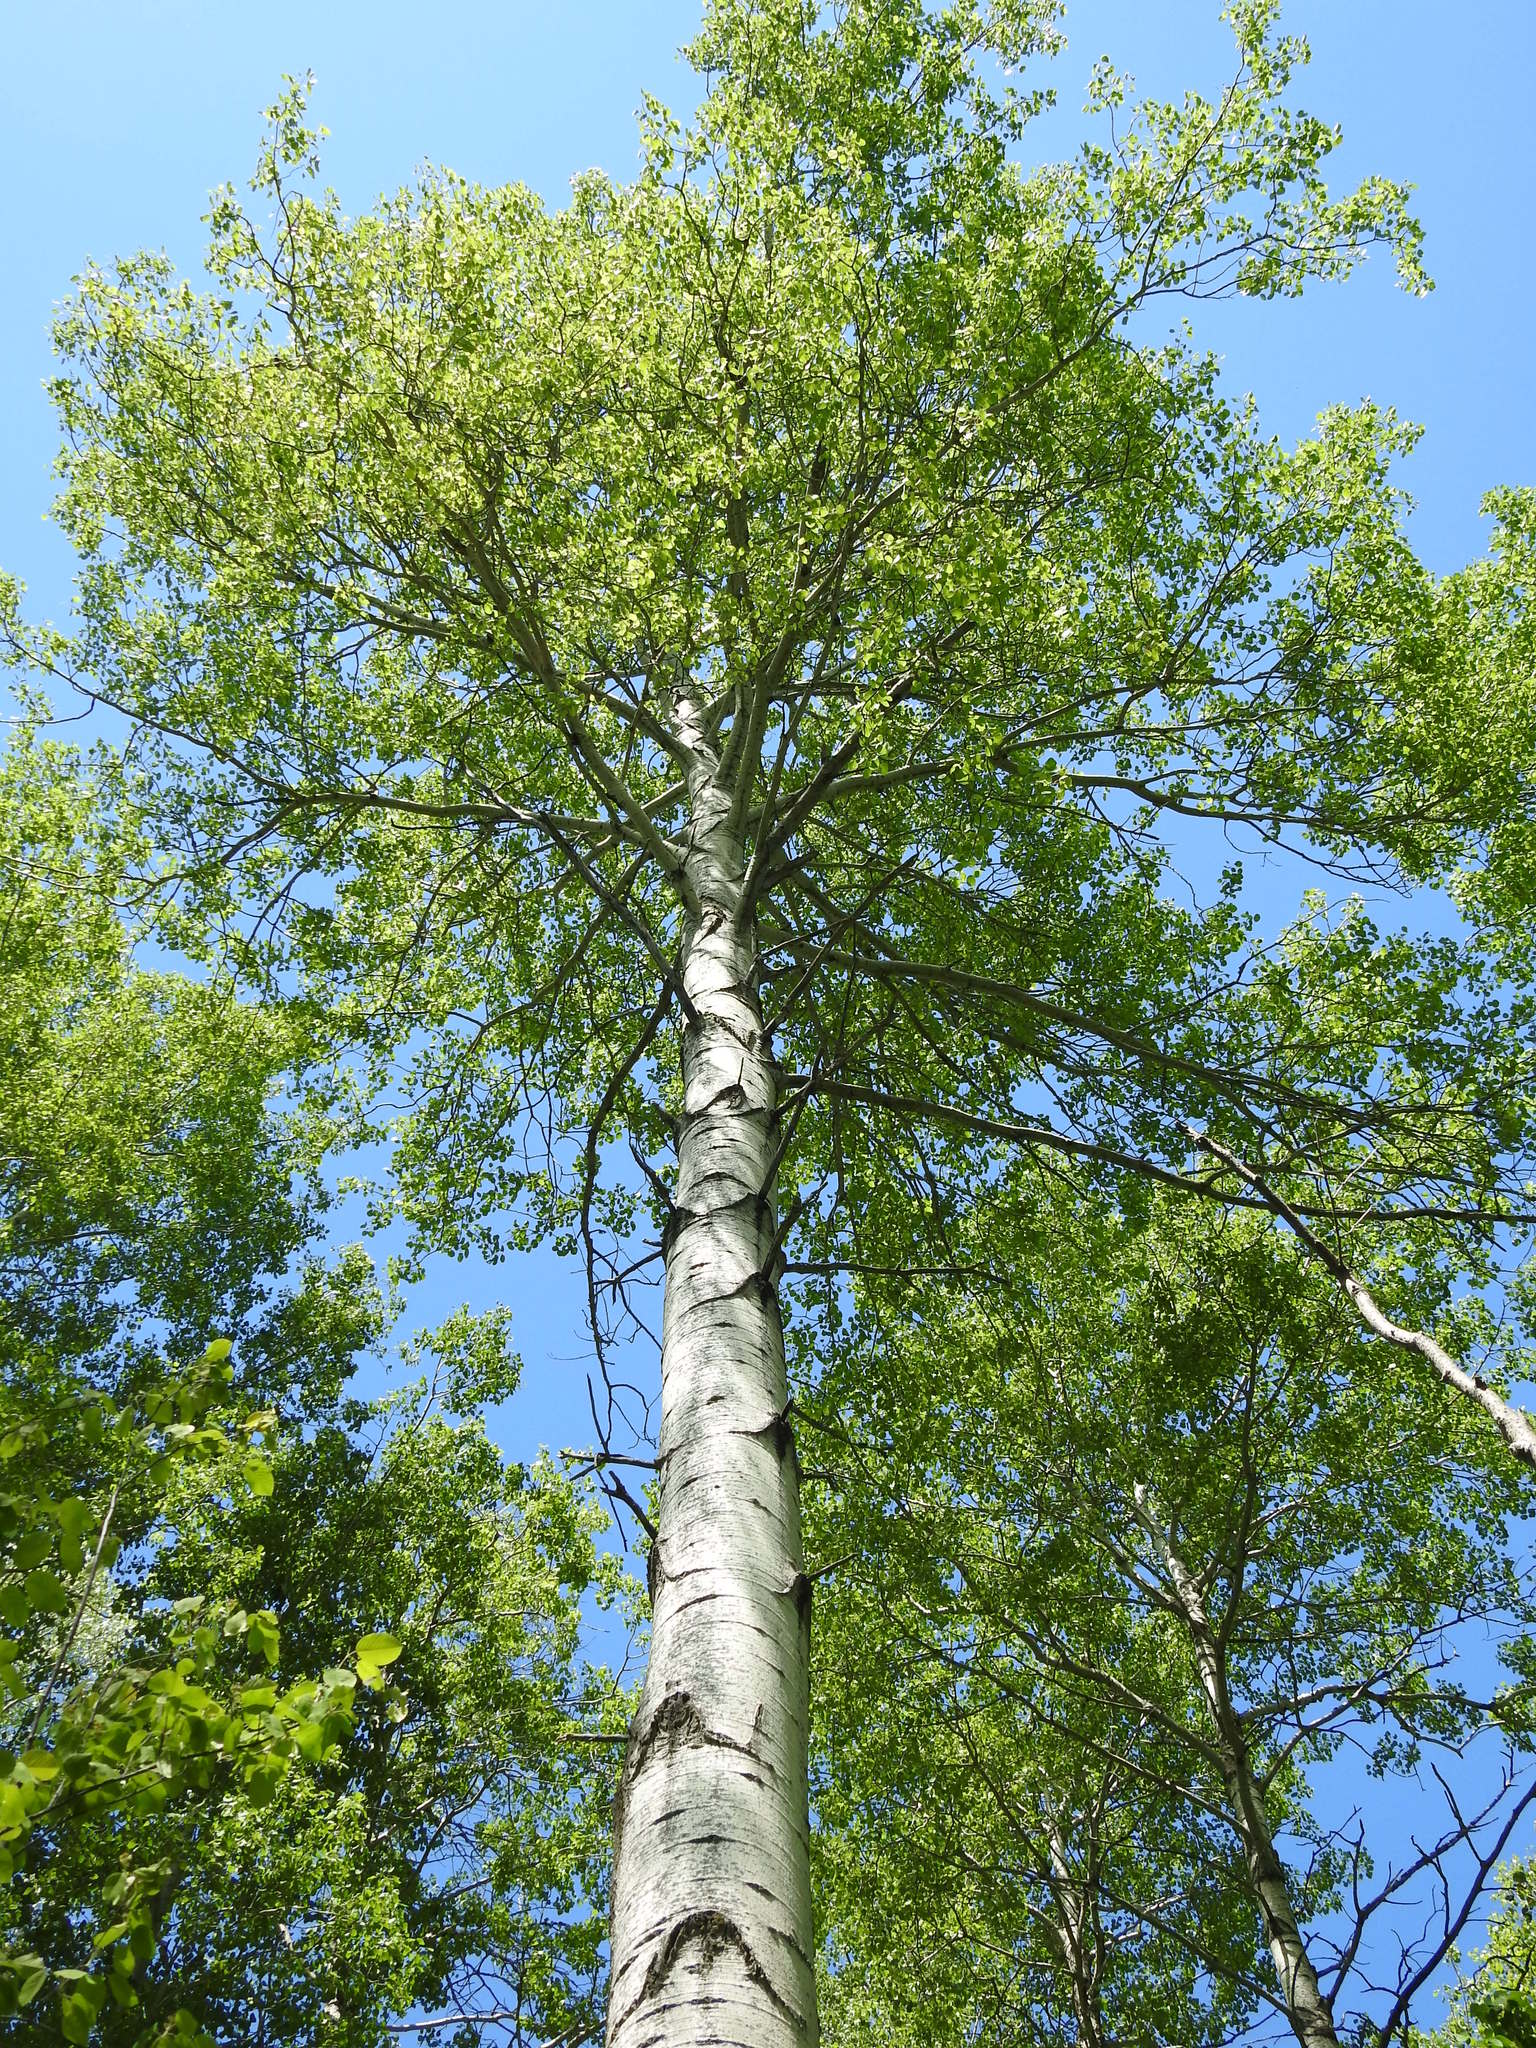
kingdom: Plantae
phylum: Tracheophyta
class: Magnoliopsida
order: Malpighiales
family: Salicaceae
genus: Populus
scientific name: Populus tremuloides
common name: Quaking aspen
